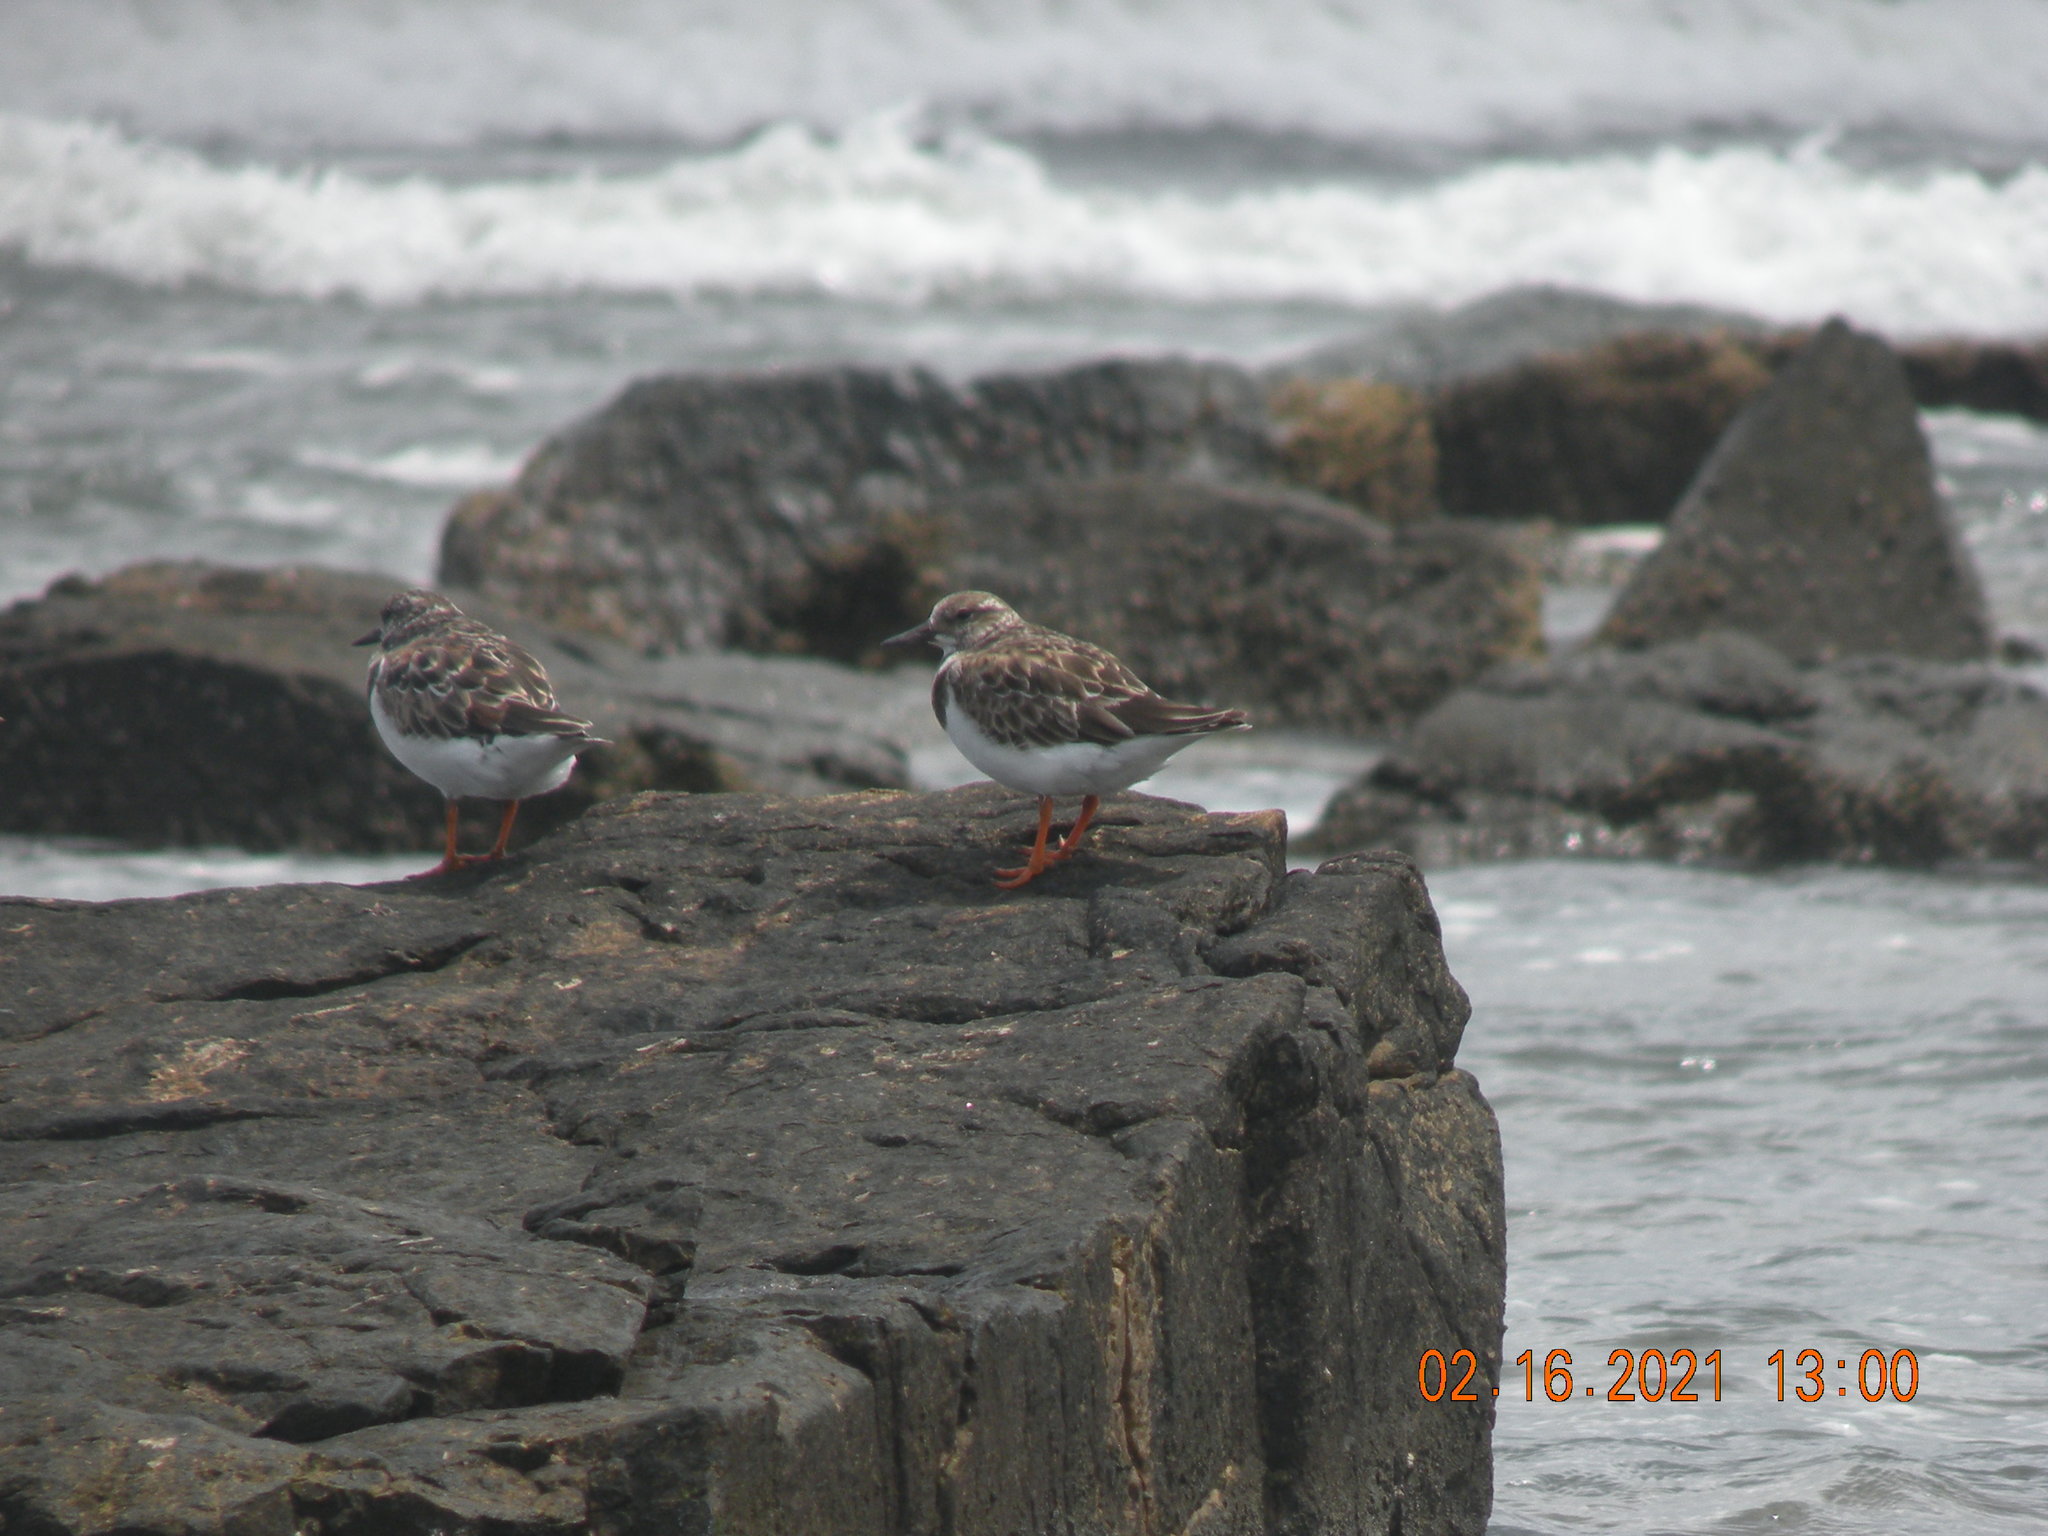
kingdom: Animalia
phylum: Chordata
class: Aves
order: Charadriiformes
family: Scolopacidae
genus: Arenaria
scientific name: Arenaria interpres
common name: Ruddy turnstone
